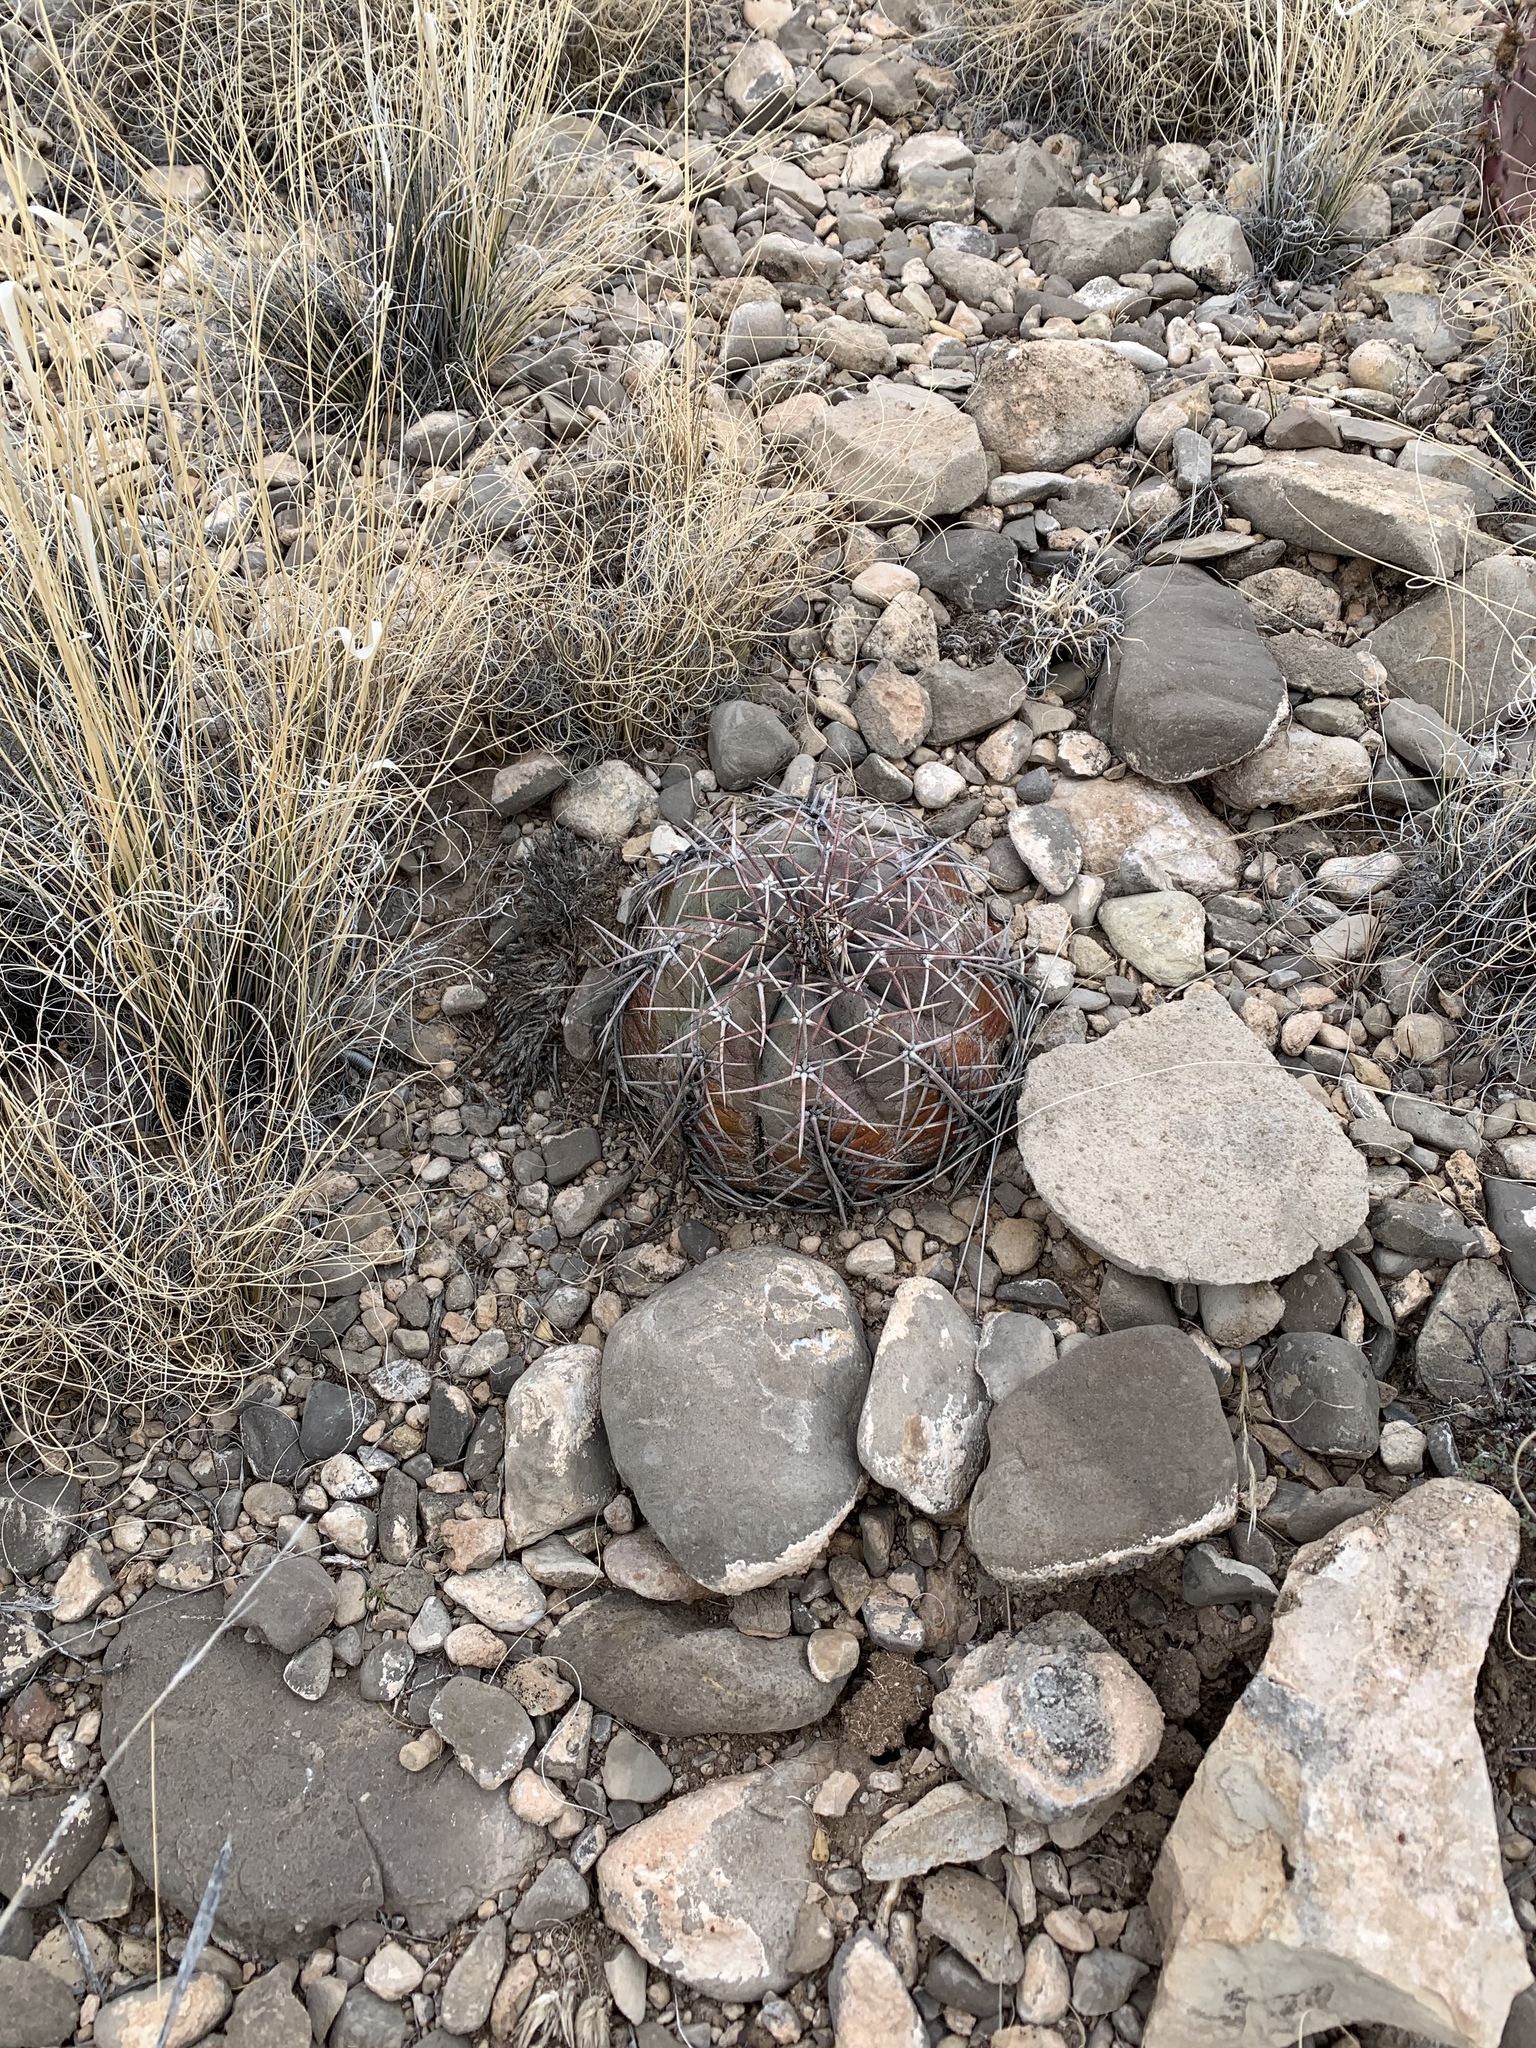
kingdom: Plantae
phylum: Tracheophyta
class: Magnoliopsida
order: Caryophyllales
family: Cactaceae
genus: Echinocactus
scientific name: Echinocactus horizonthalonius
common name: Devilshead
